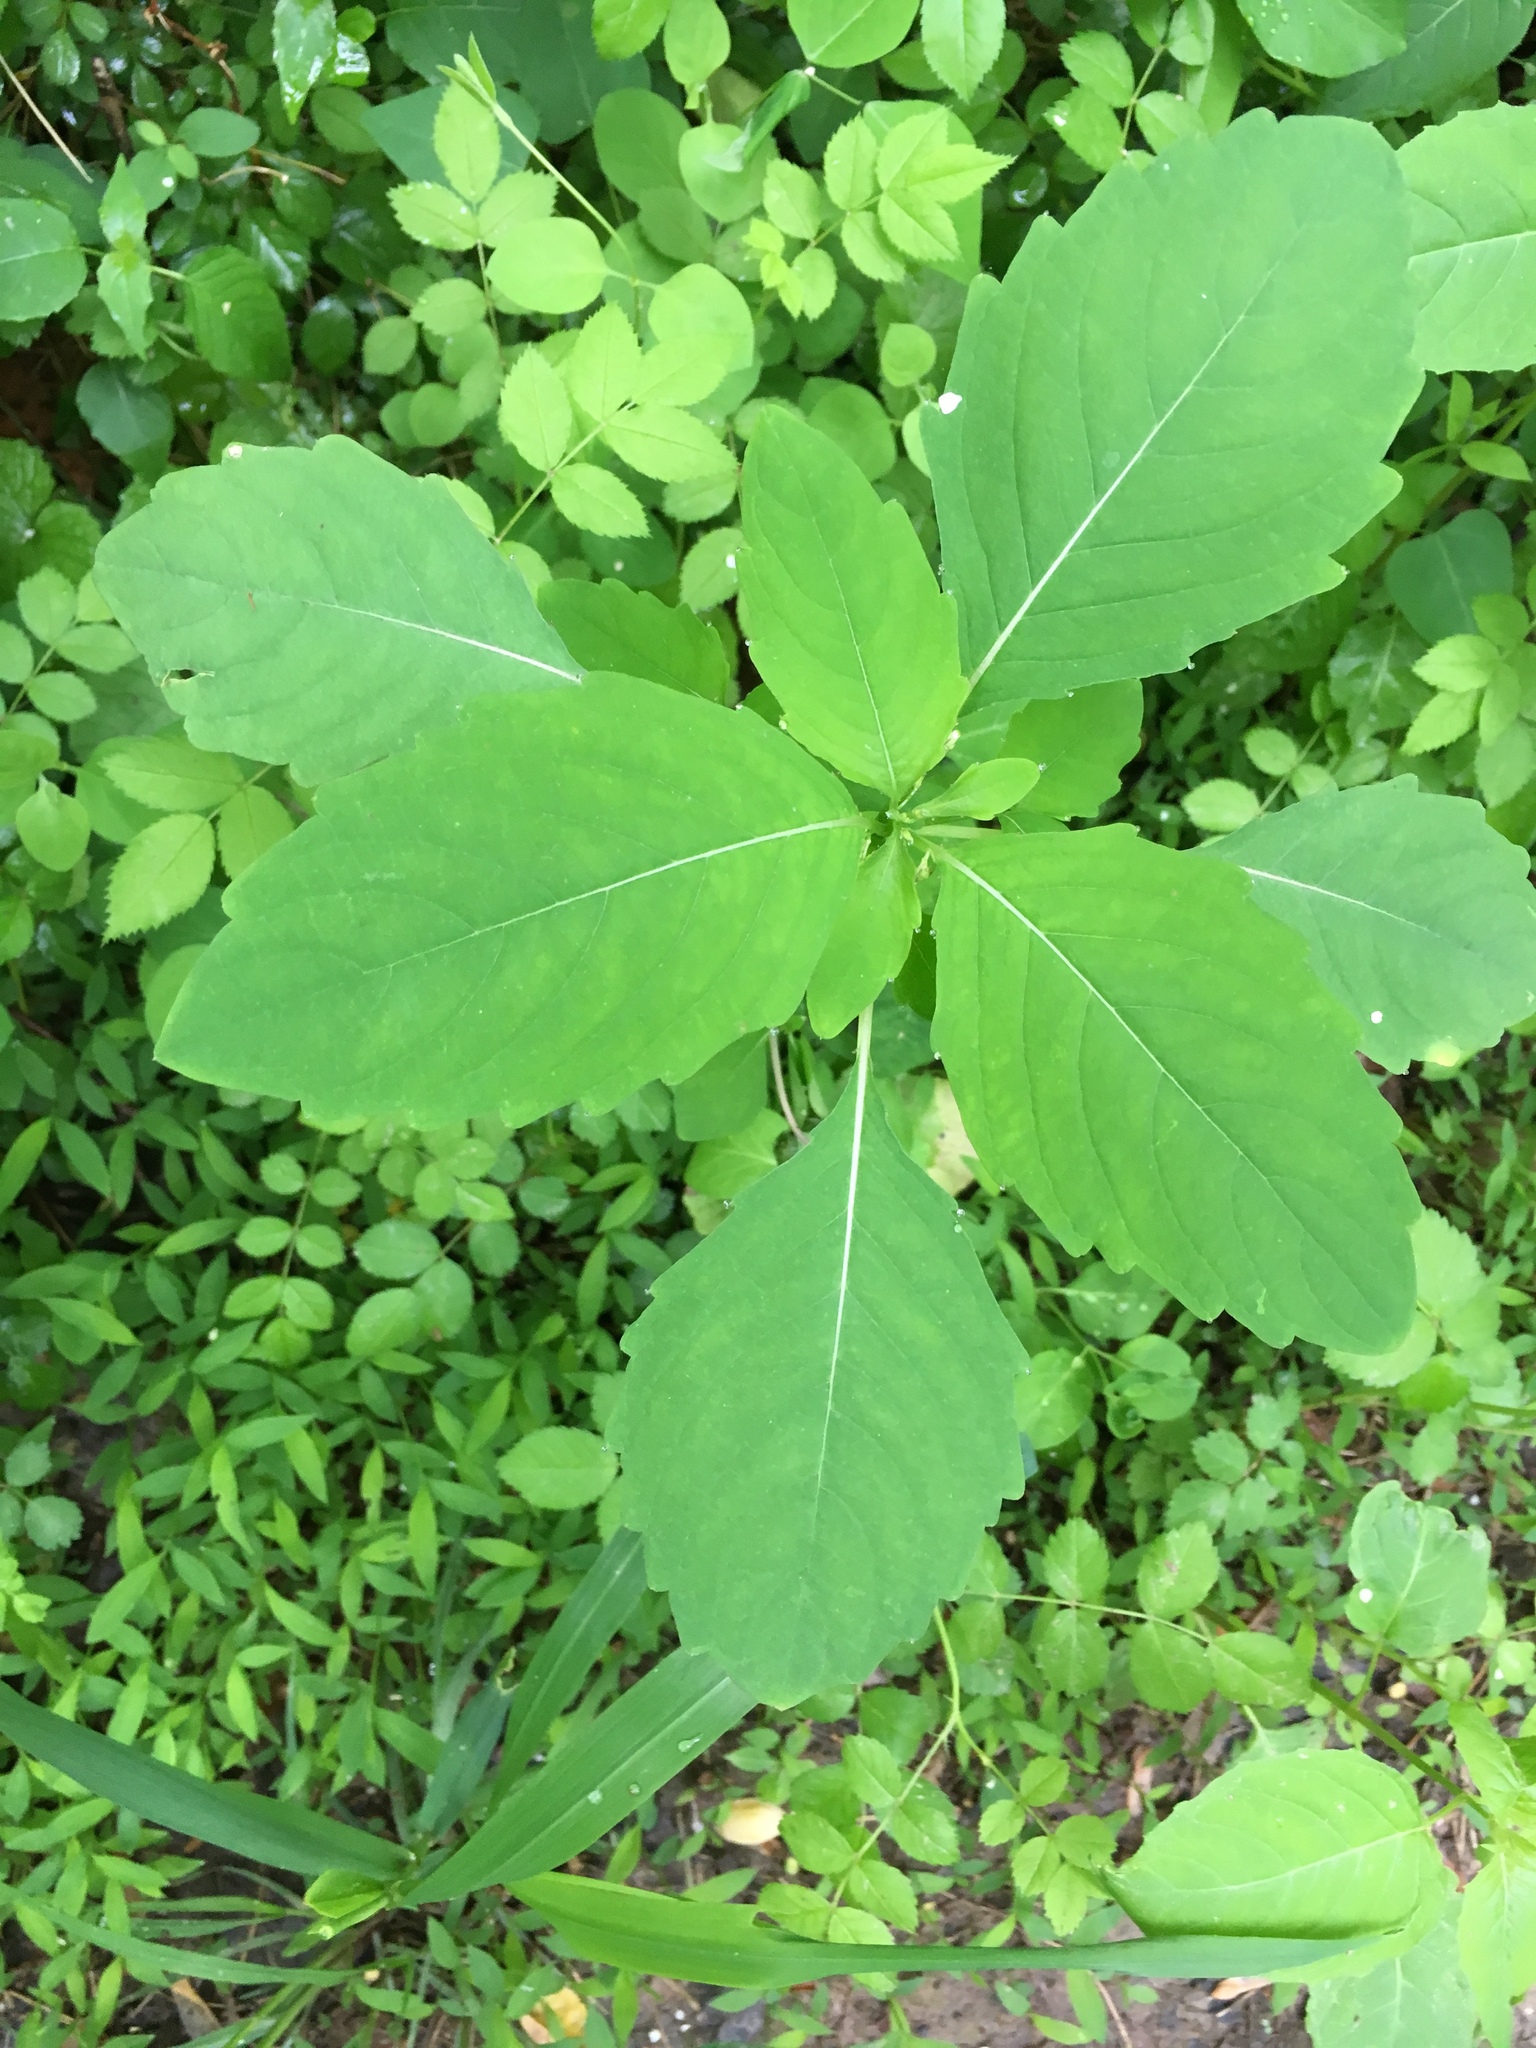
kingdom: Plantae
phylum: Tracheophyta
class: Magnoliopsida
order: Ericales
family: Balsaminaceae
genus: Impatiens
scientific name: Impatiens capensis
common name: Orange balsam
